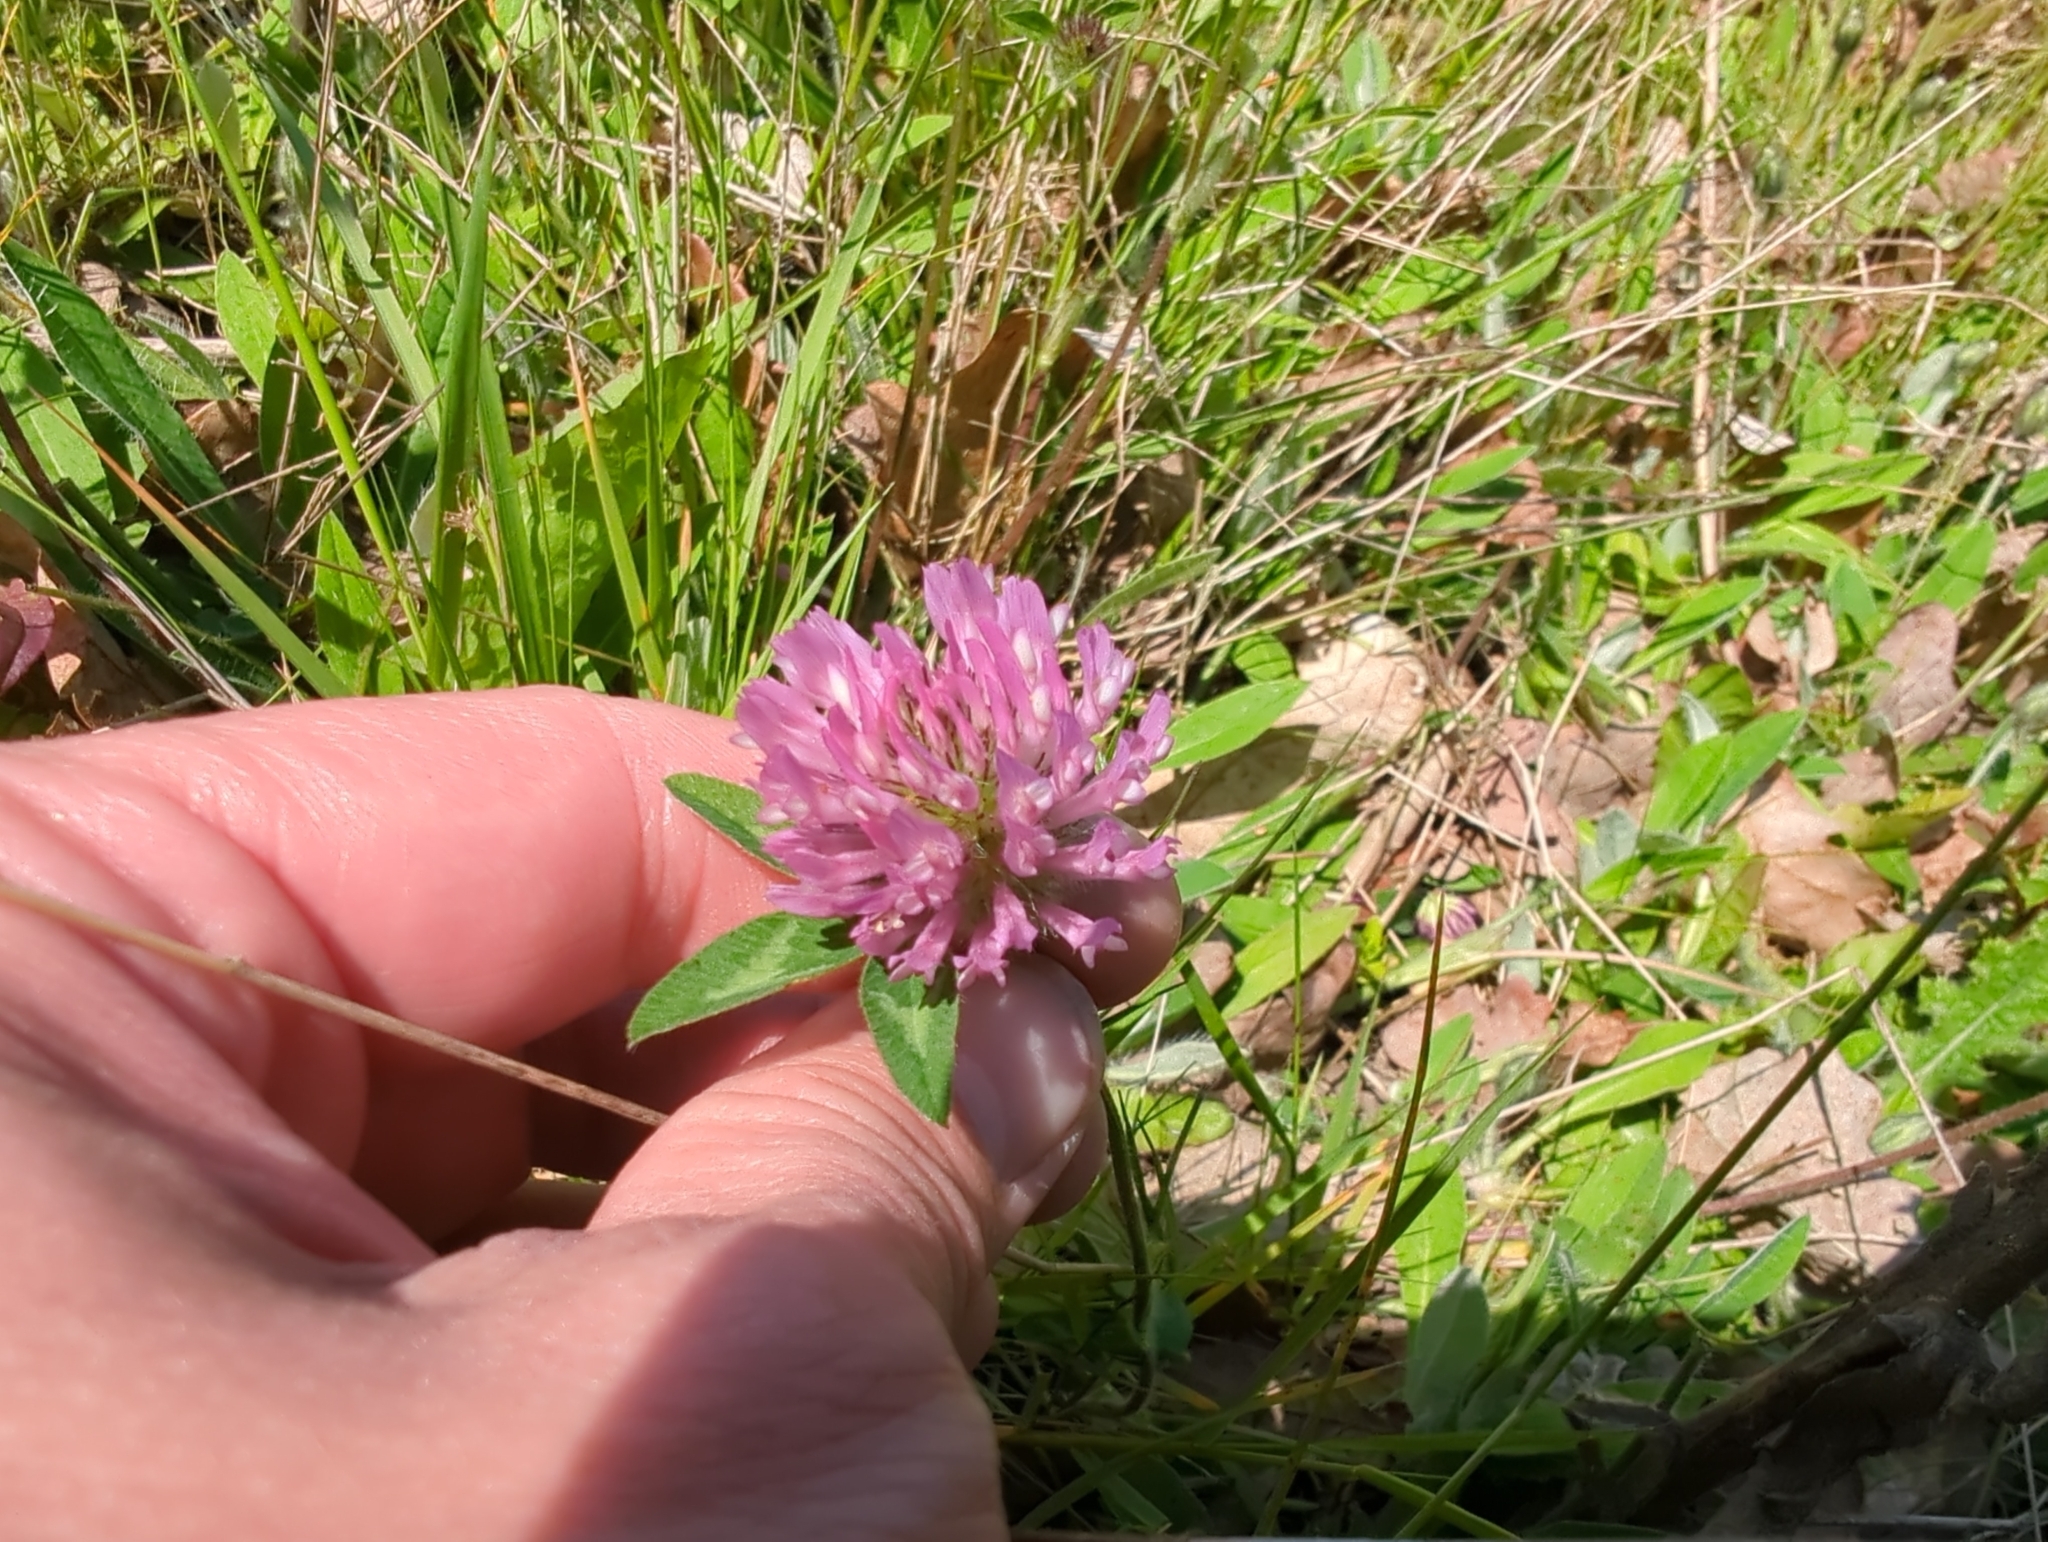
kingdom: Plantae
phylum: Tracheophyta
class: Magnoliopsida
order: Fabales
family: Fabaceae
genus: Trifolium
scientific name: Trifolium pratense
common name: Red clover
